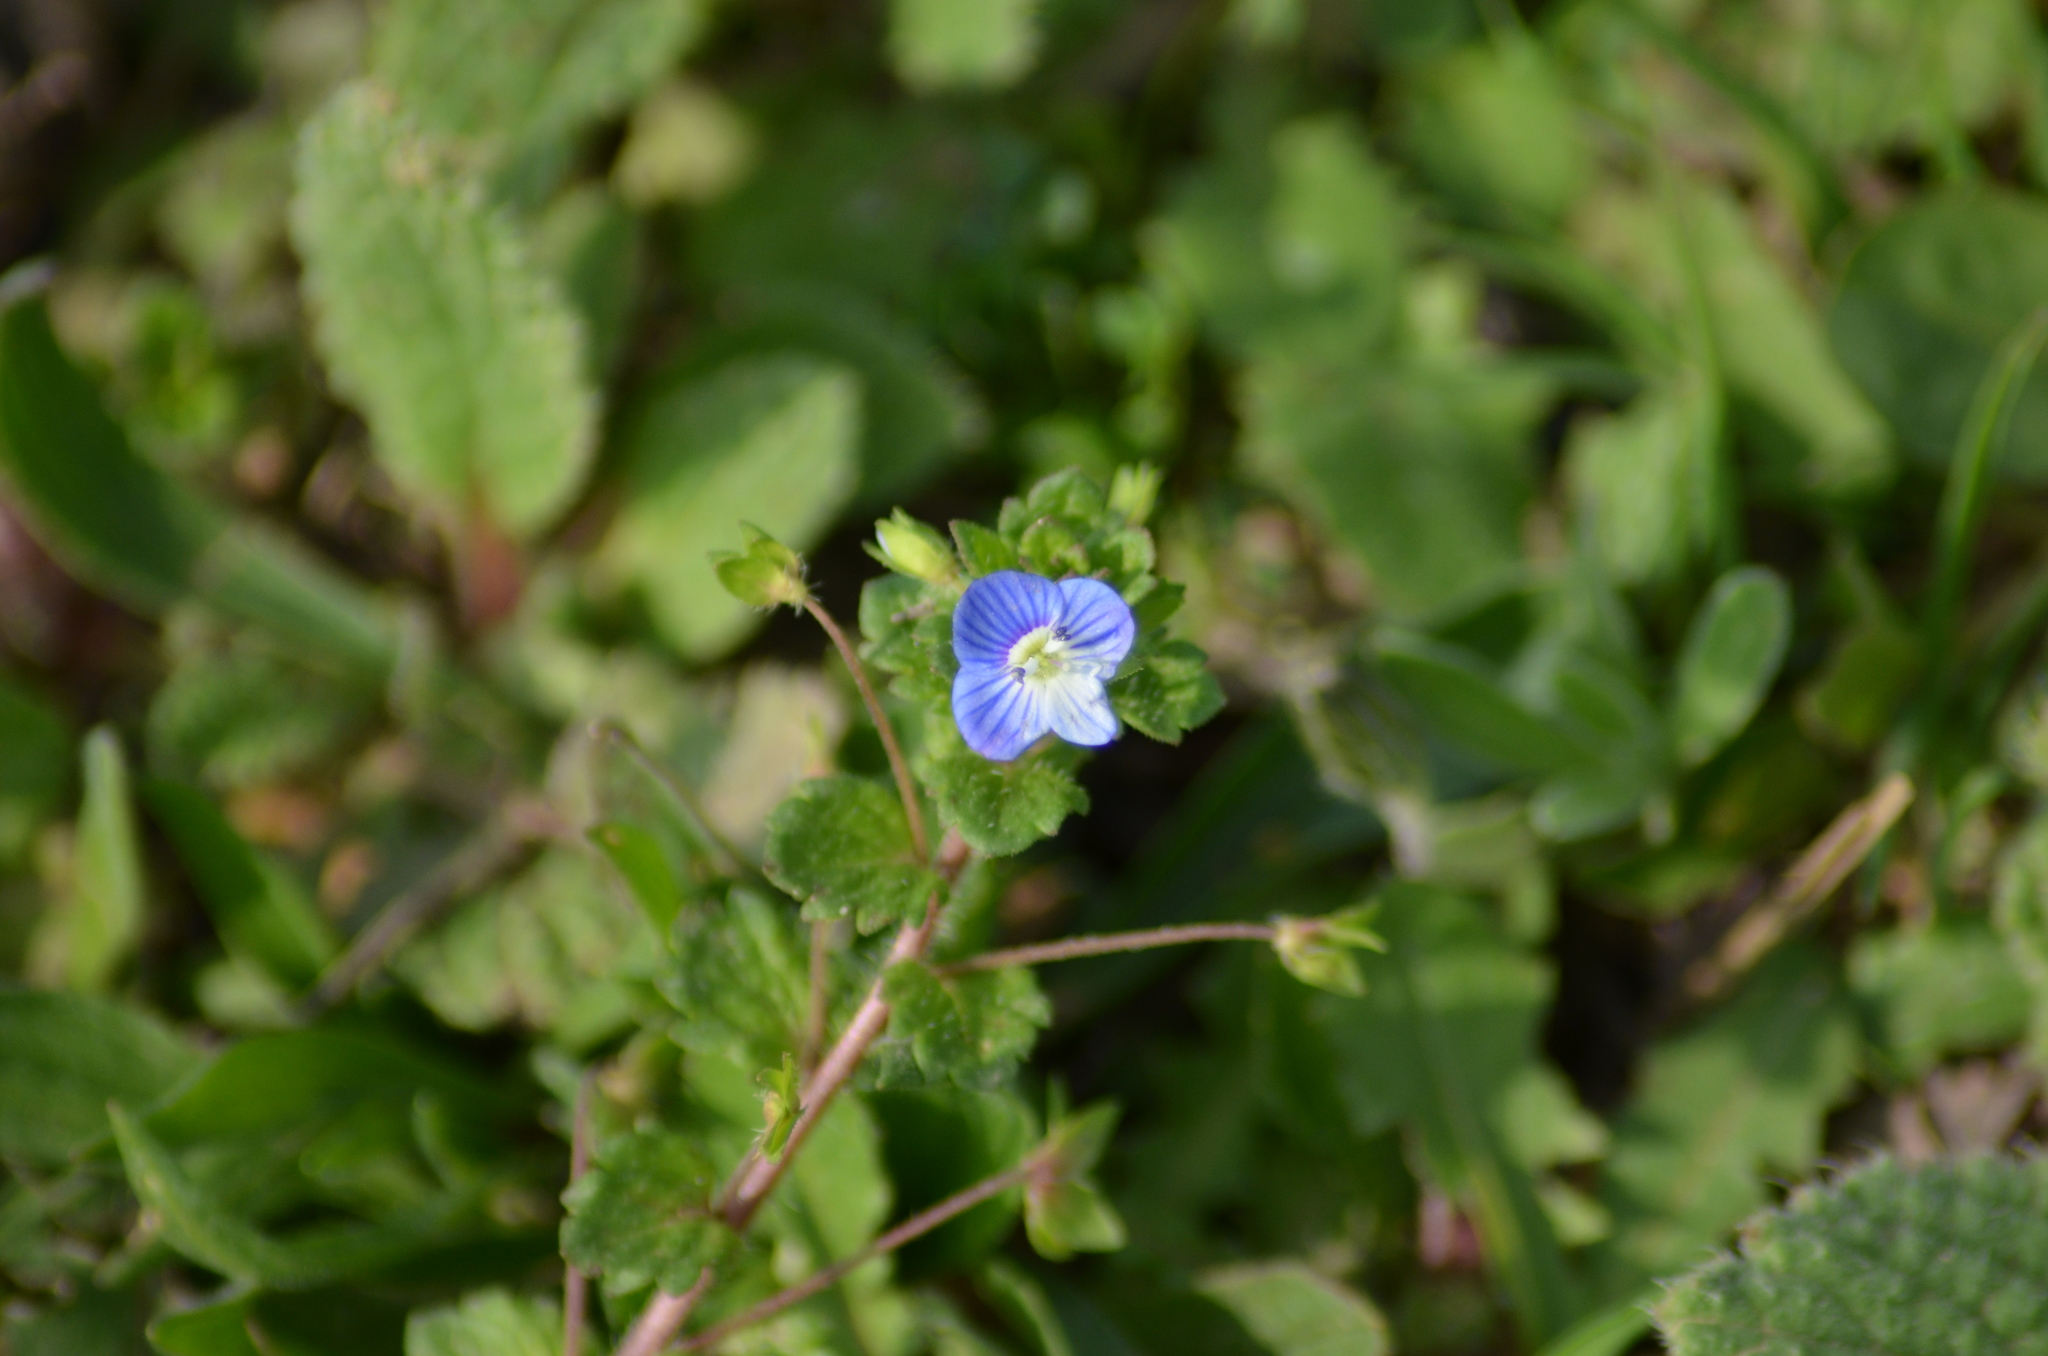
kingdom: Plantae
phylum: Tracheophyta
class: Magnoliopsida
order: Lamiales
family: Plantaginaceae
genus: Veronica
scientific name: Veronica persica
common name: Common field-speedwell
